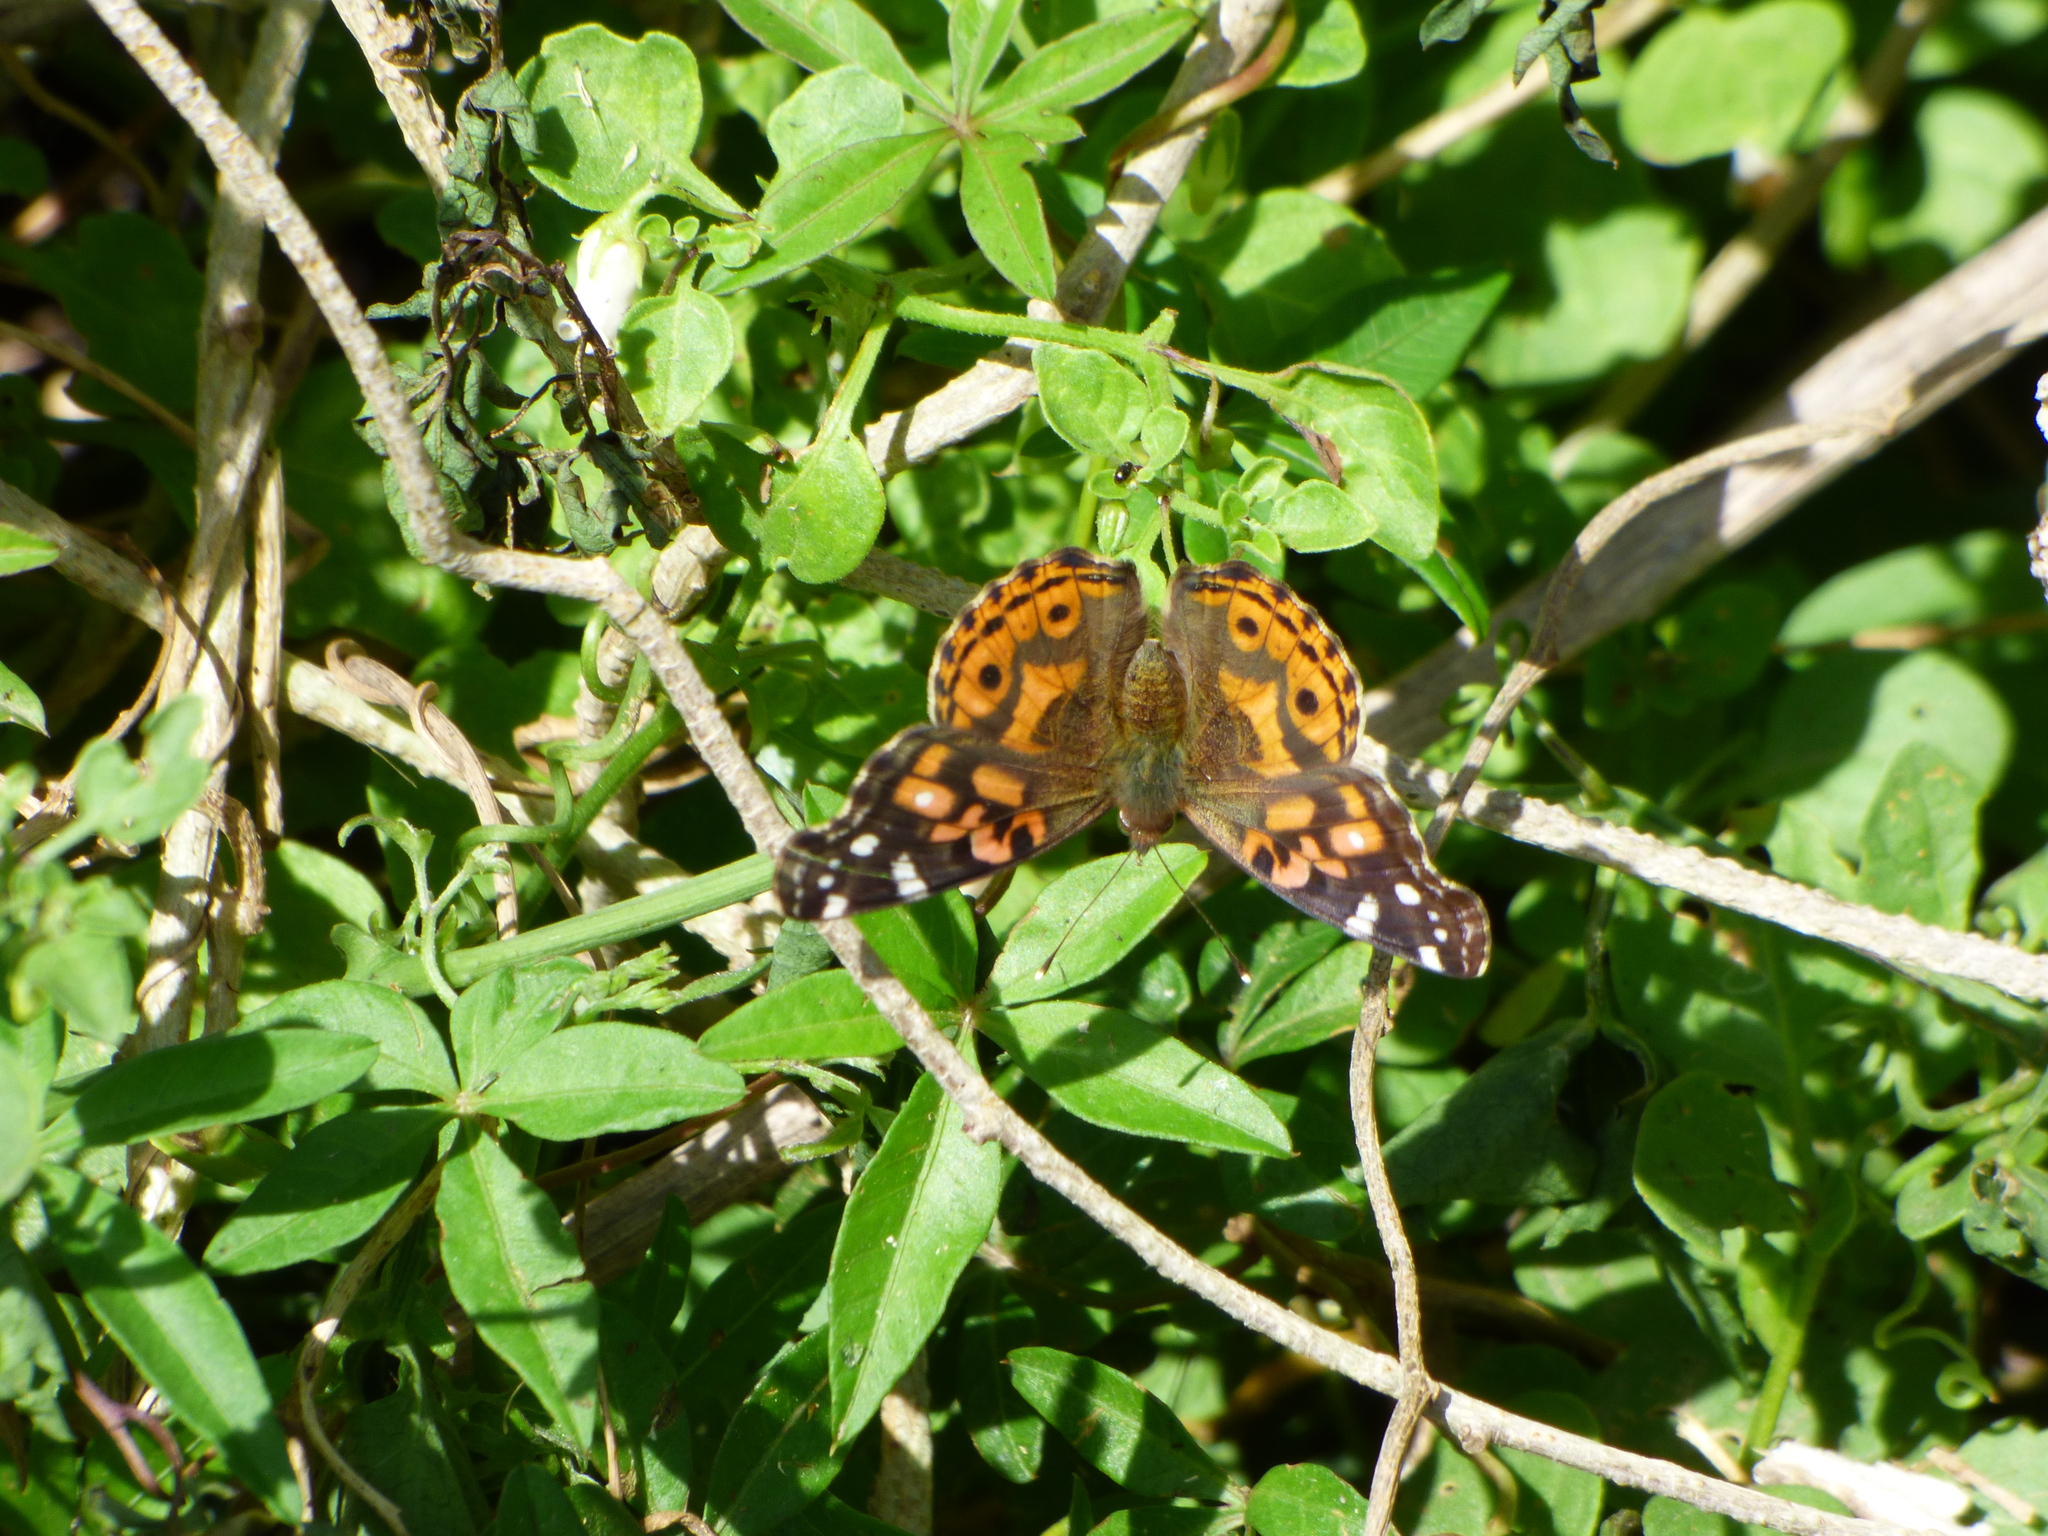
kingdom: Animalia
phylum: Arthropoda
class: Insecta
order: Lepidoptera
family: Nymphalidae
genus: Vanessa
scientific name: Vanessa braziliensis
